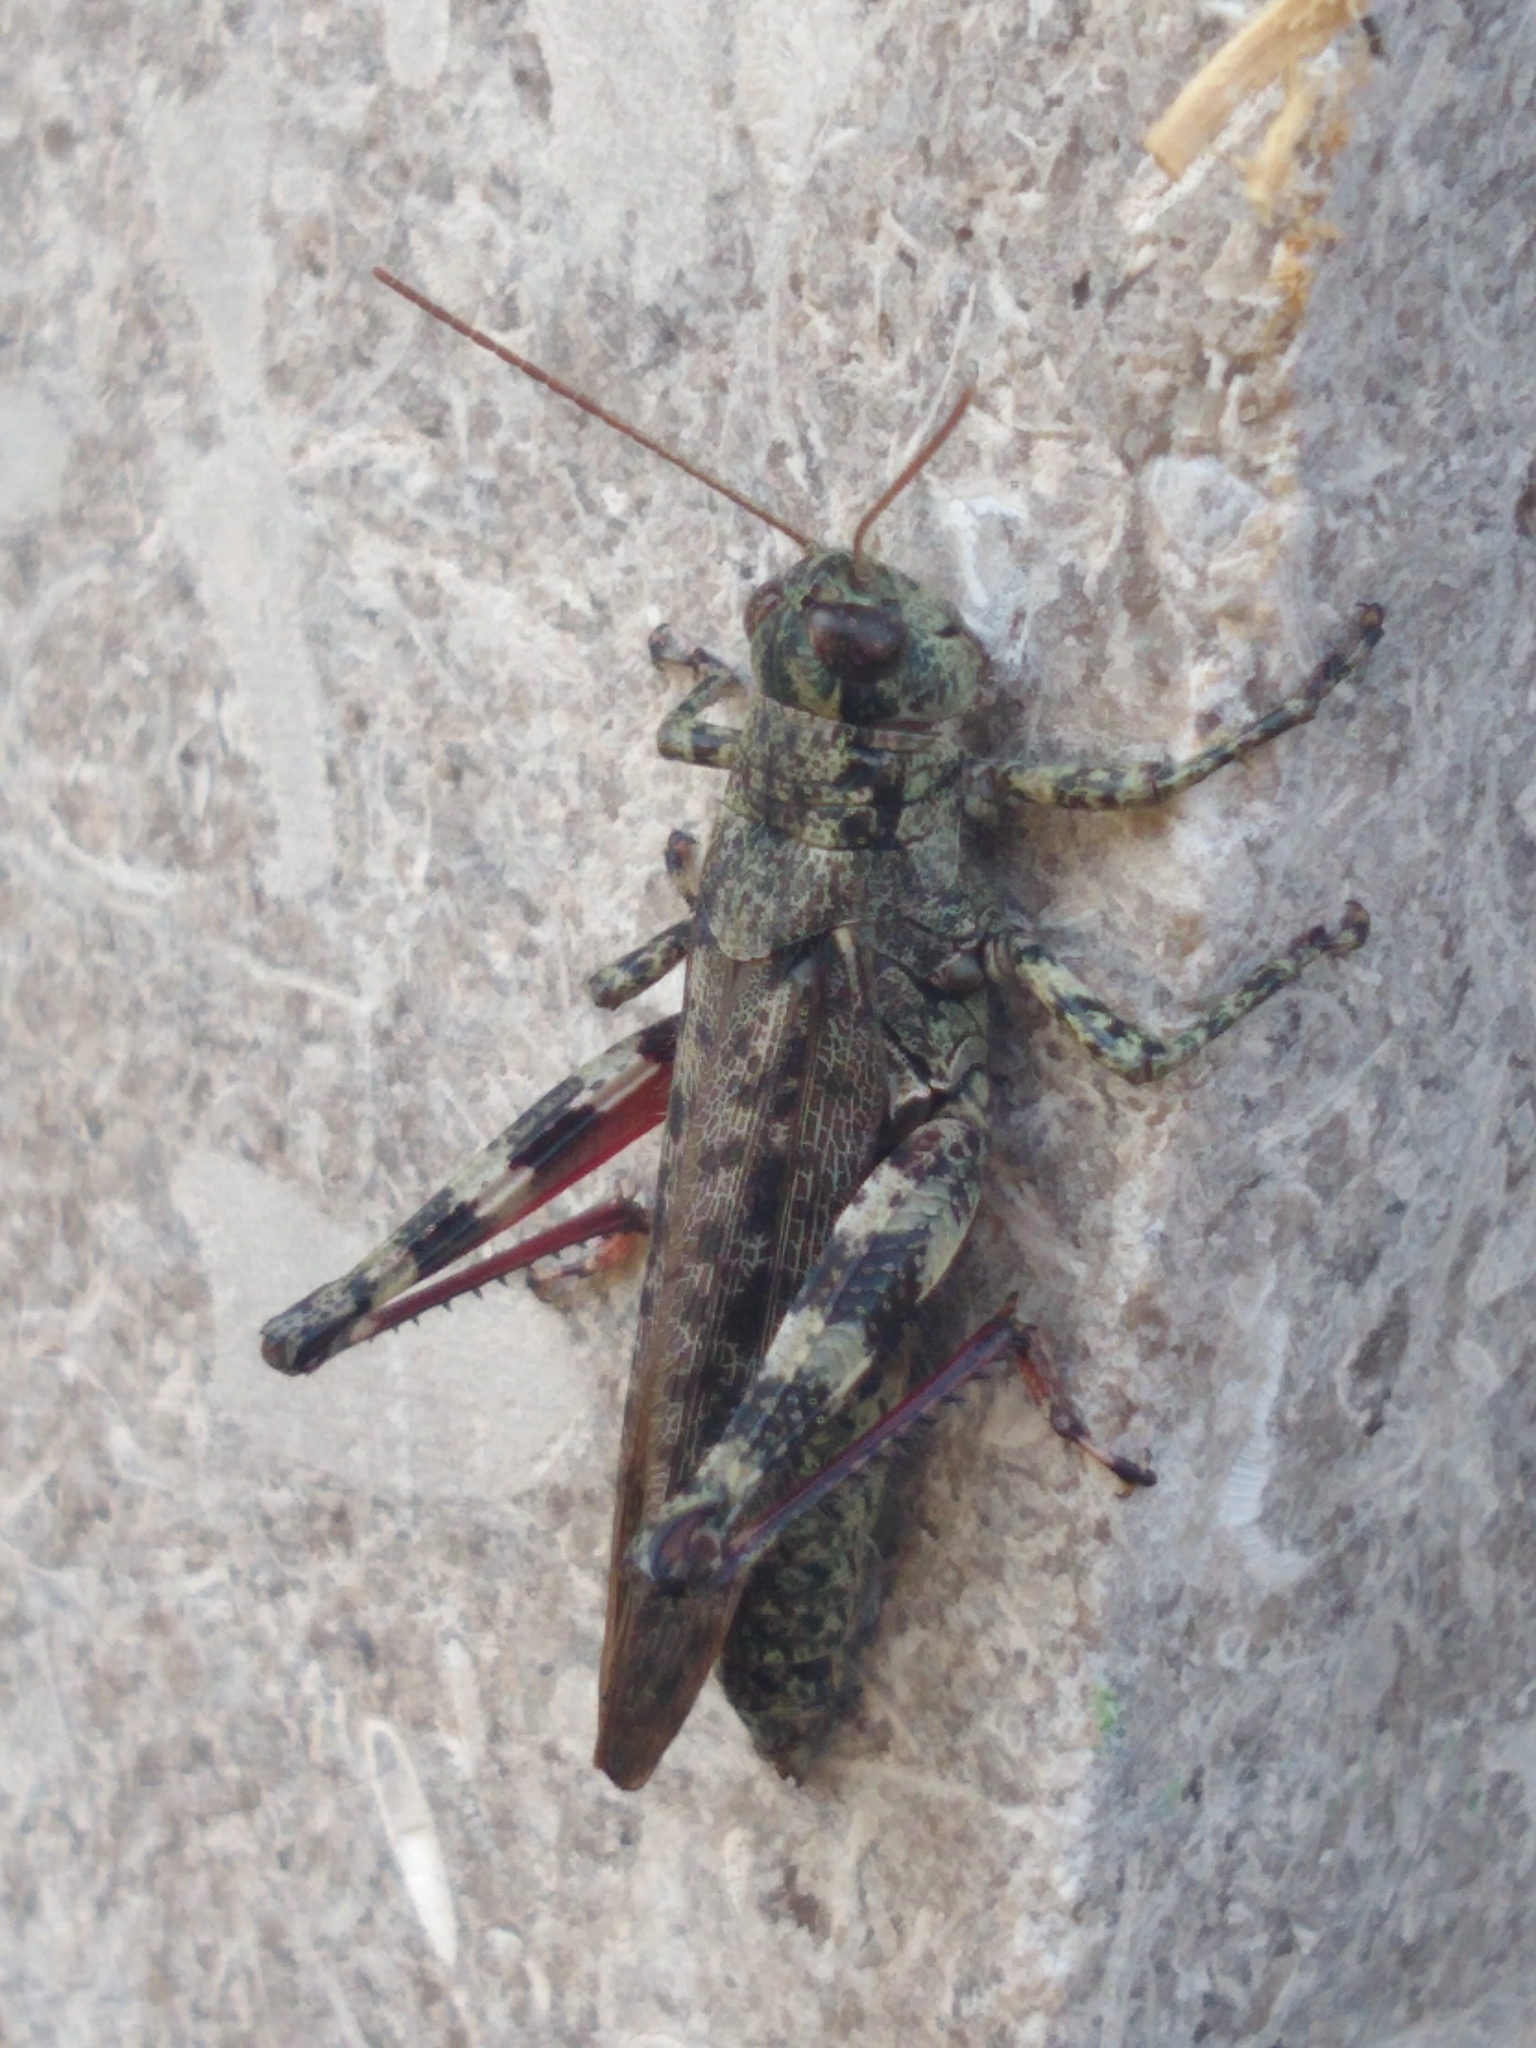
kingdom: Animalia
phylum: Arthropoda
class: Insecta
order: Orthoptera
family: Acrididae
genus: Melanoplus
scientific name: Melanoplus punctulatus
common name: Pine-tree spur-throat grasshopper
